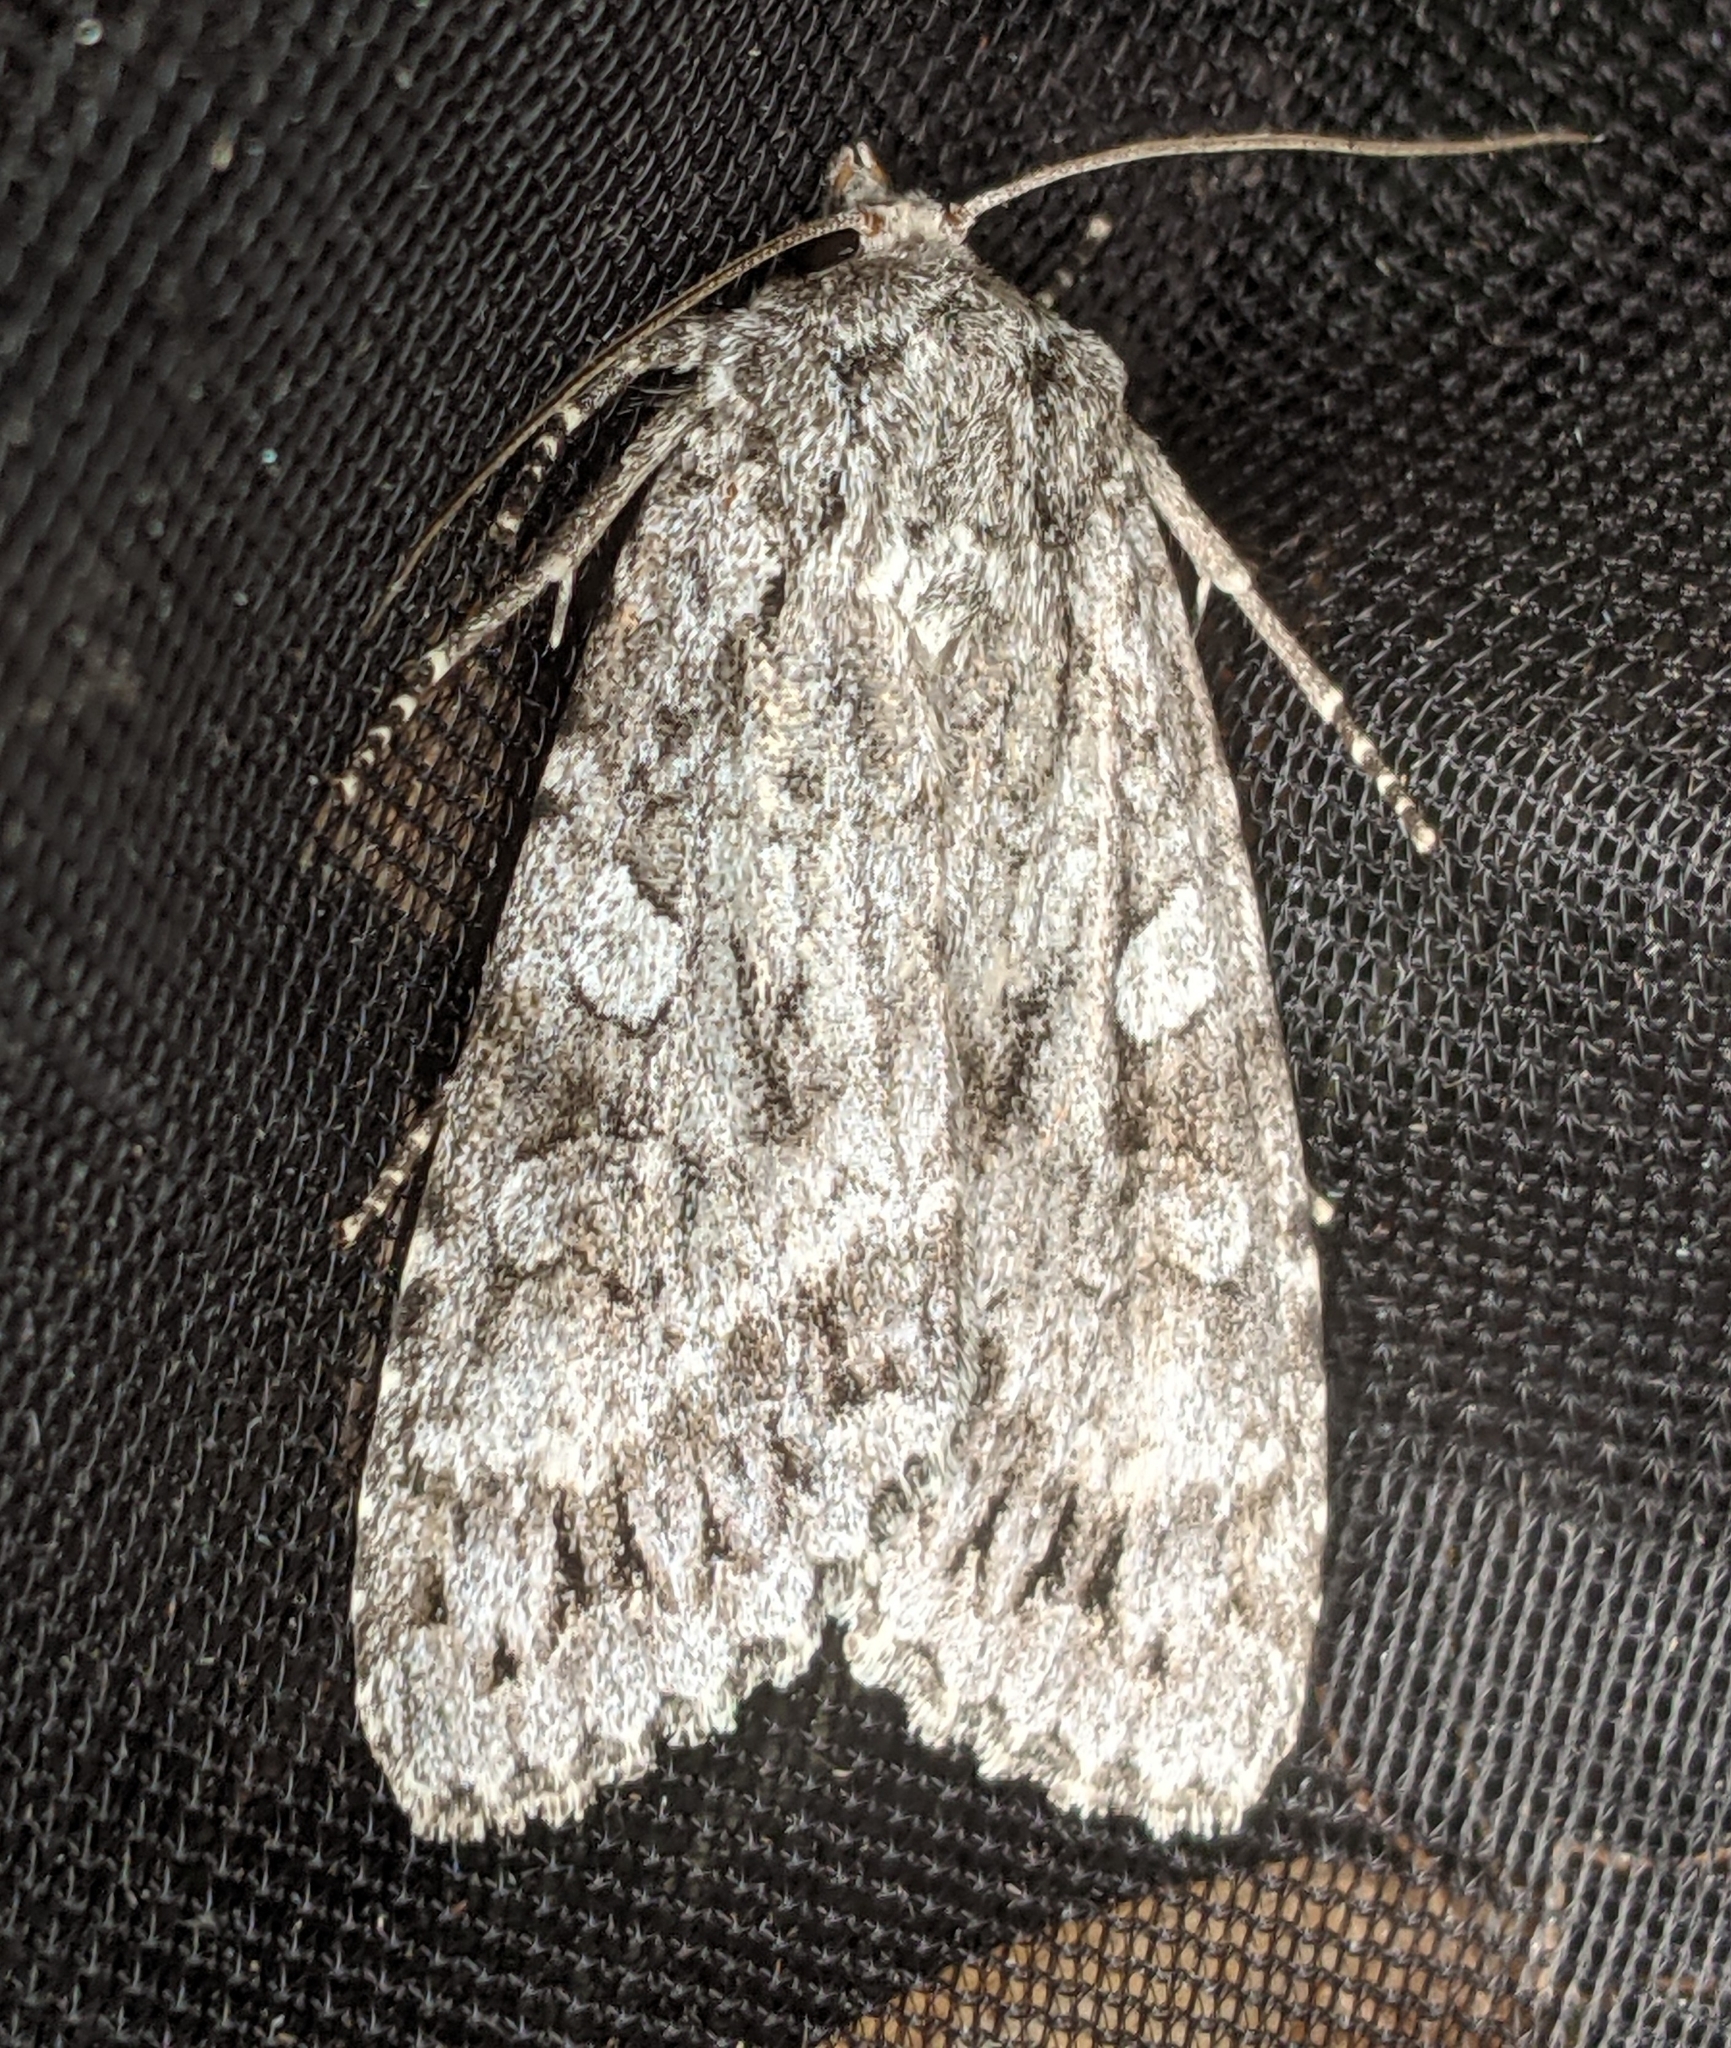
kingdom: Animalia
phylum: Arthropoda
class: Insecta
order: Lepidoptera
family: Noctuidae
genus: Eurois
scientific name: Eurois occulta
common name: Great brocade
